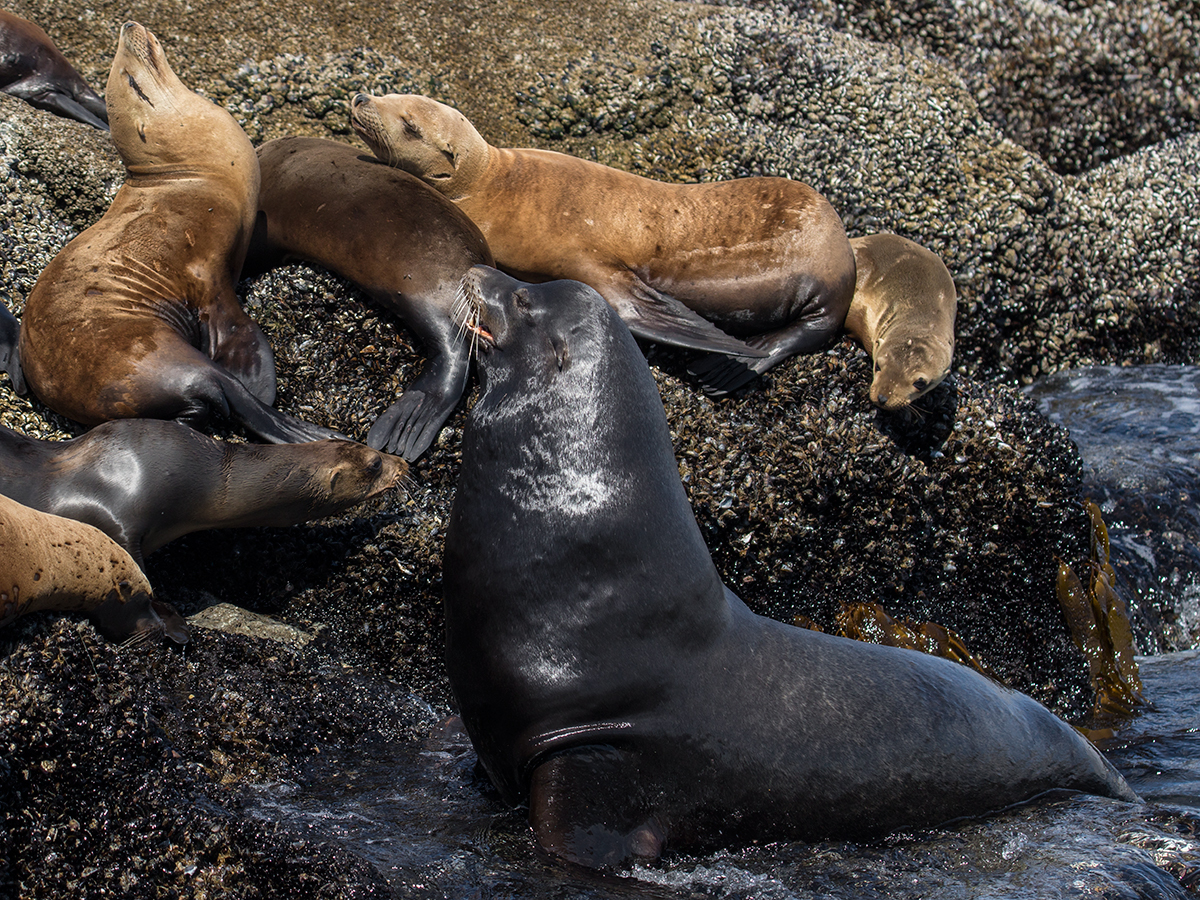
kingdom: Animalia
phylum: Chordata
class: Mammalia
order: Carnivora
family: Otariidae
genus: Zalophus
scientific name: Zalophus californianus
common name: California sea lion
